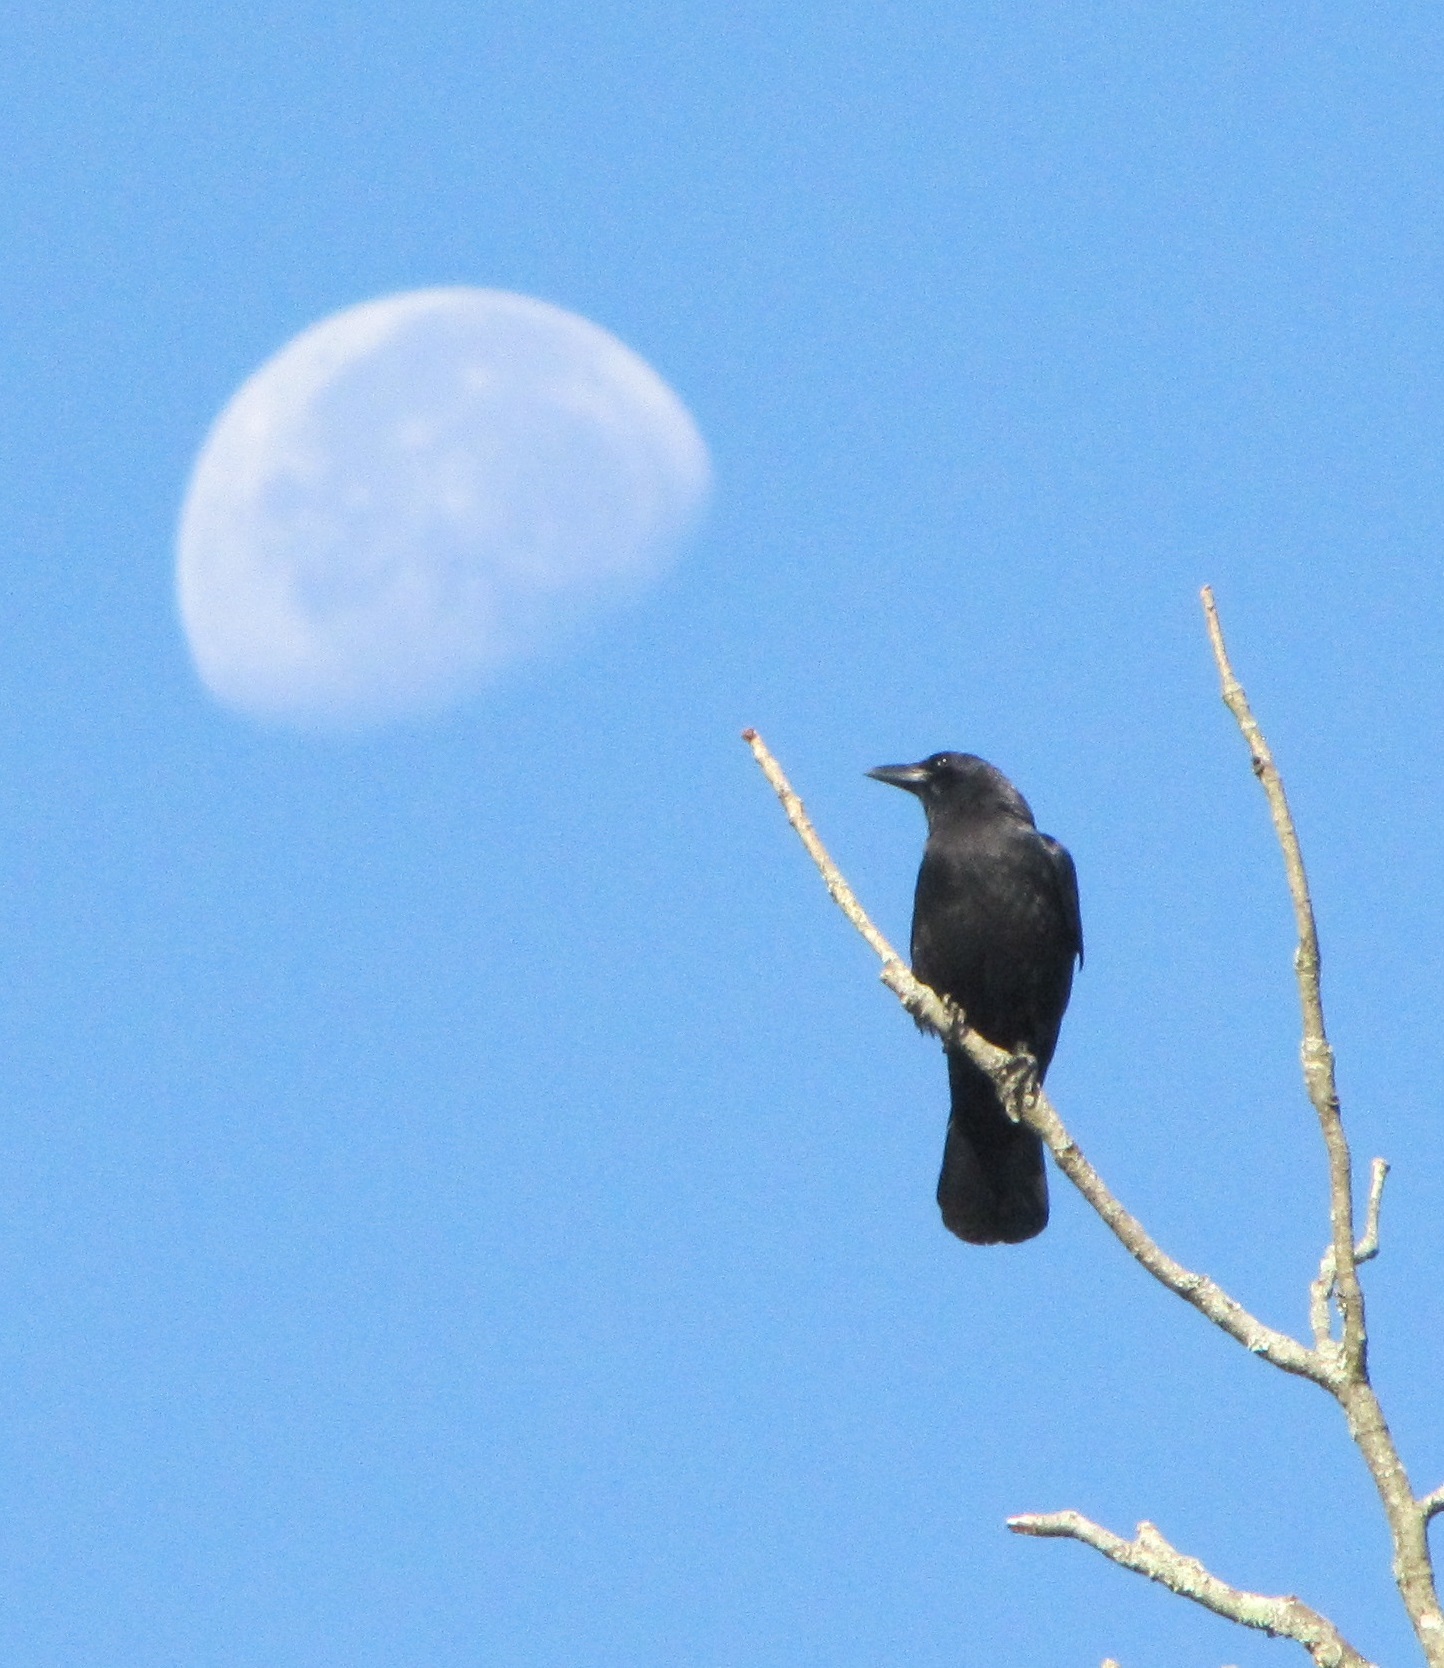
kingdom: Animalia
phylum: Chordata
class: Aves
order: Passeriformes
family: Corvidae
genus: Corvus
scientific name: Corvus brachyrhynchos
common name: American crow
